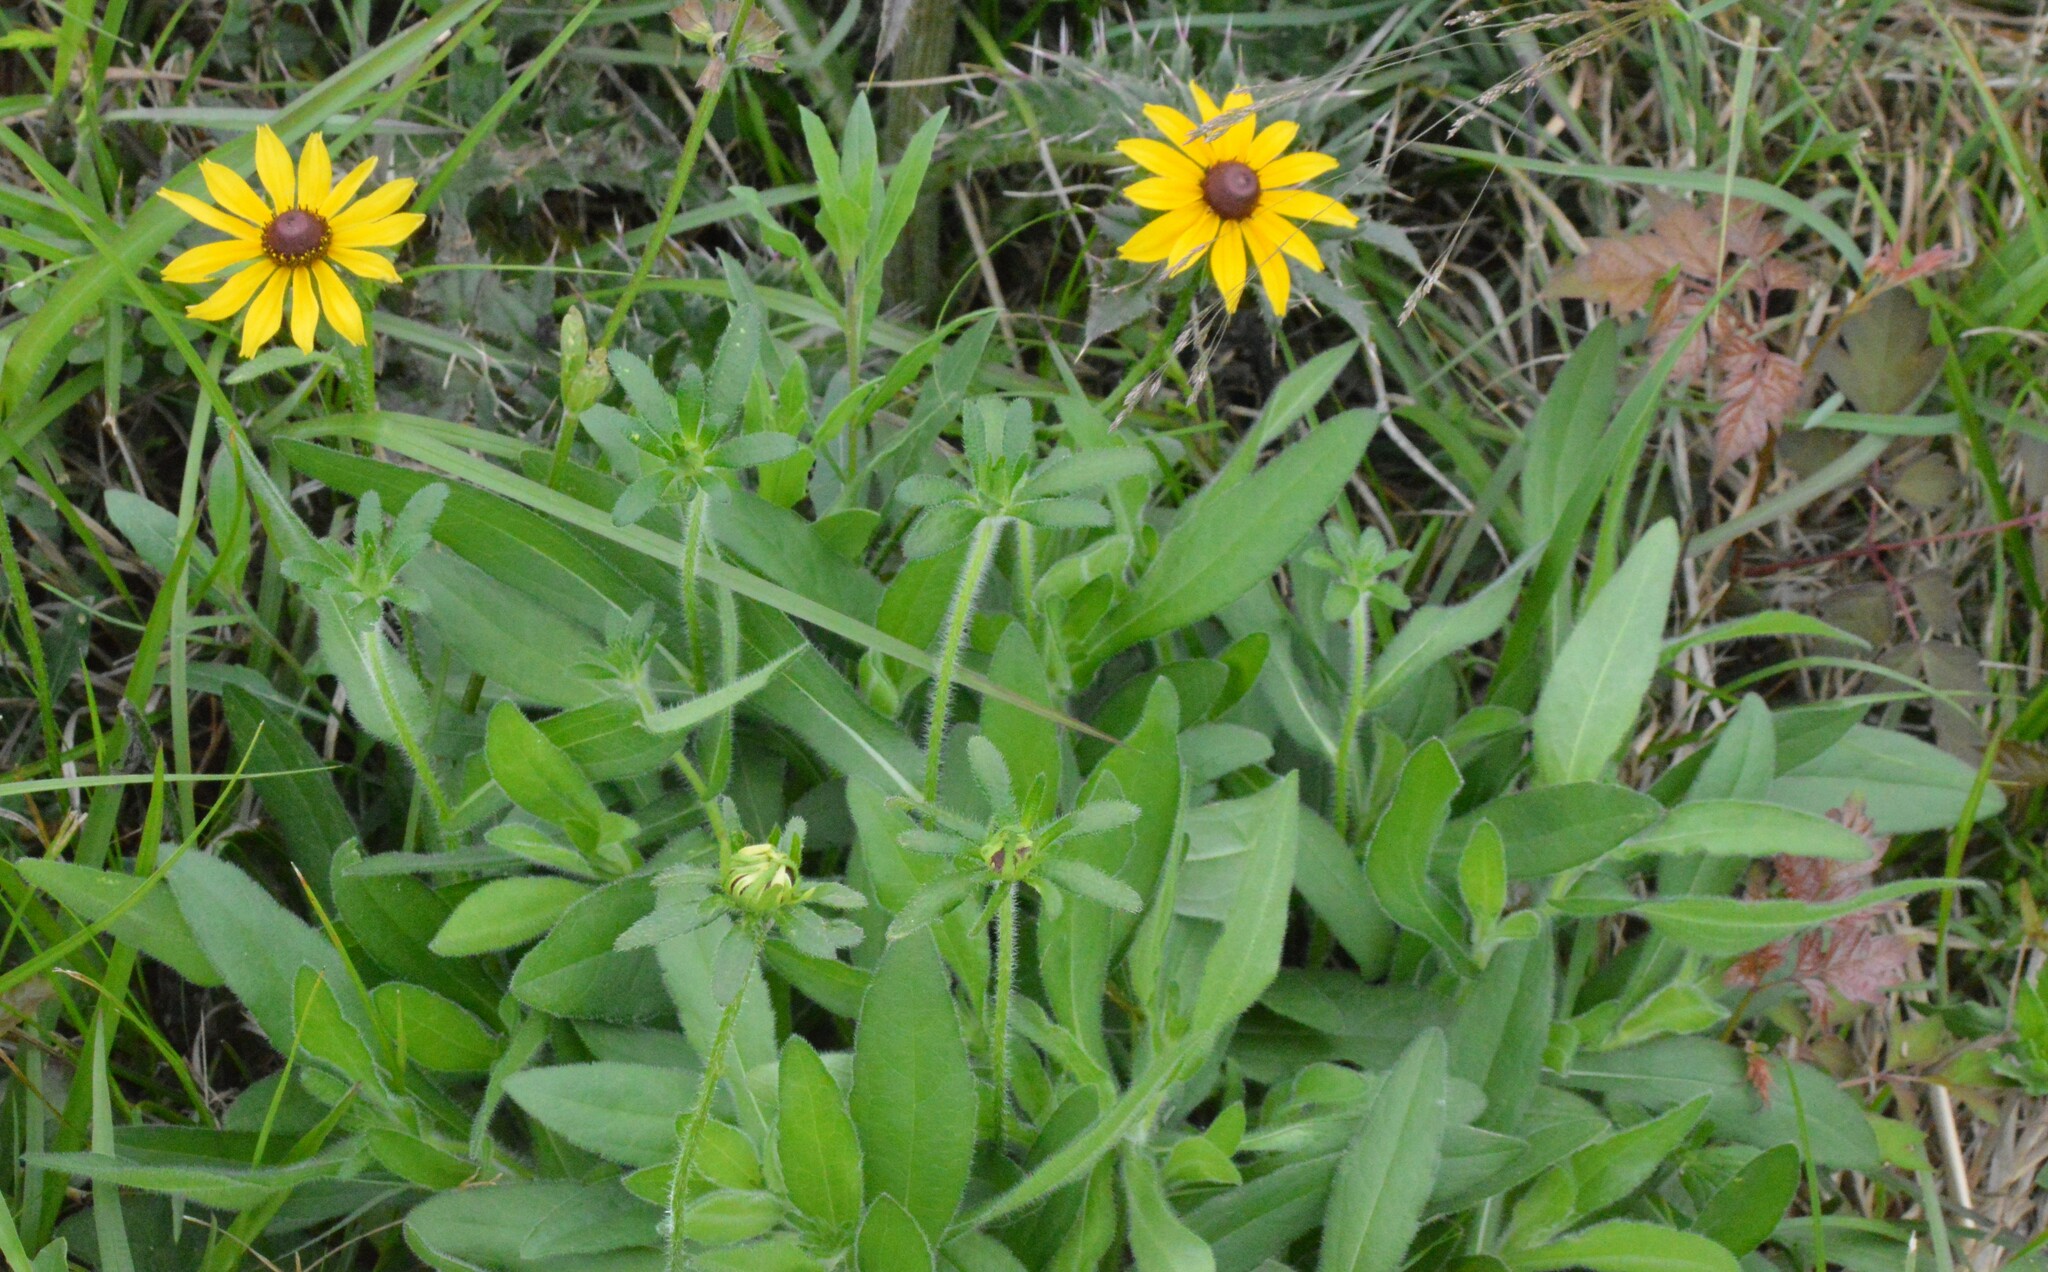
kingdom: Plantae
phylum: Tracheophyta
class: Magnoliopsida
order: Asterales
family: Asteraceae
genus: Rudbeckia
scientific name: Rudbeckia hirta
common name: Black-eyed-susan
